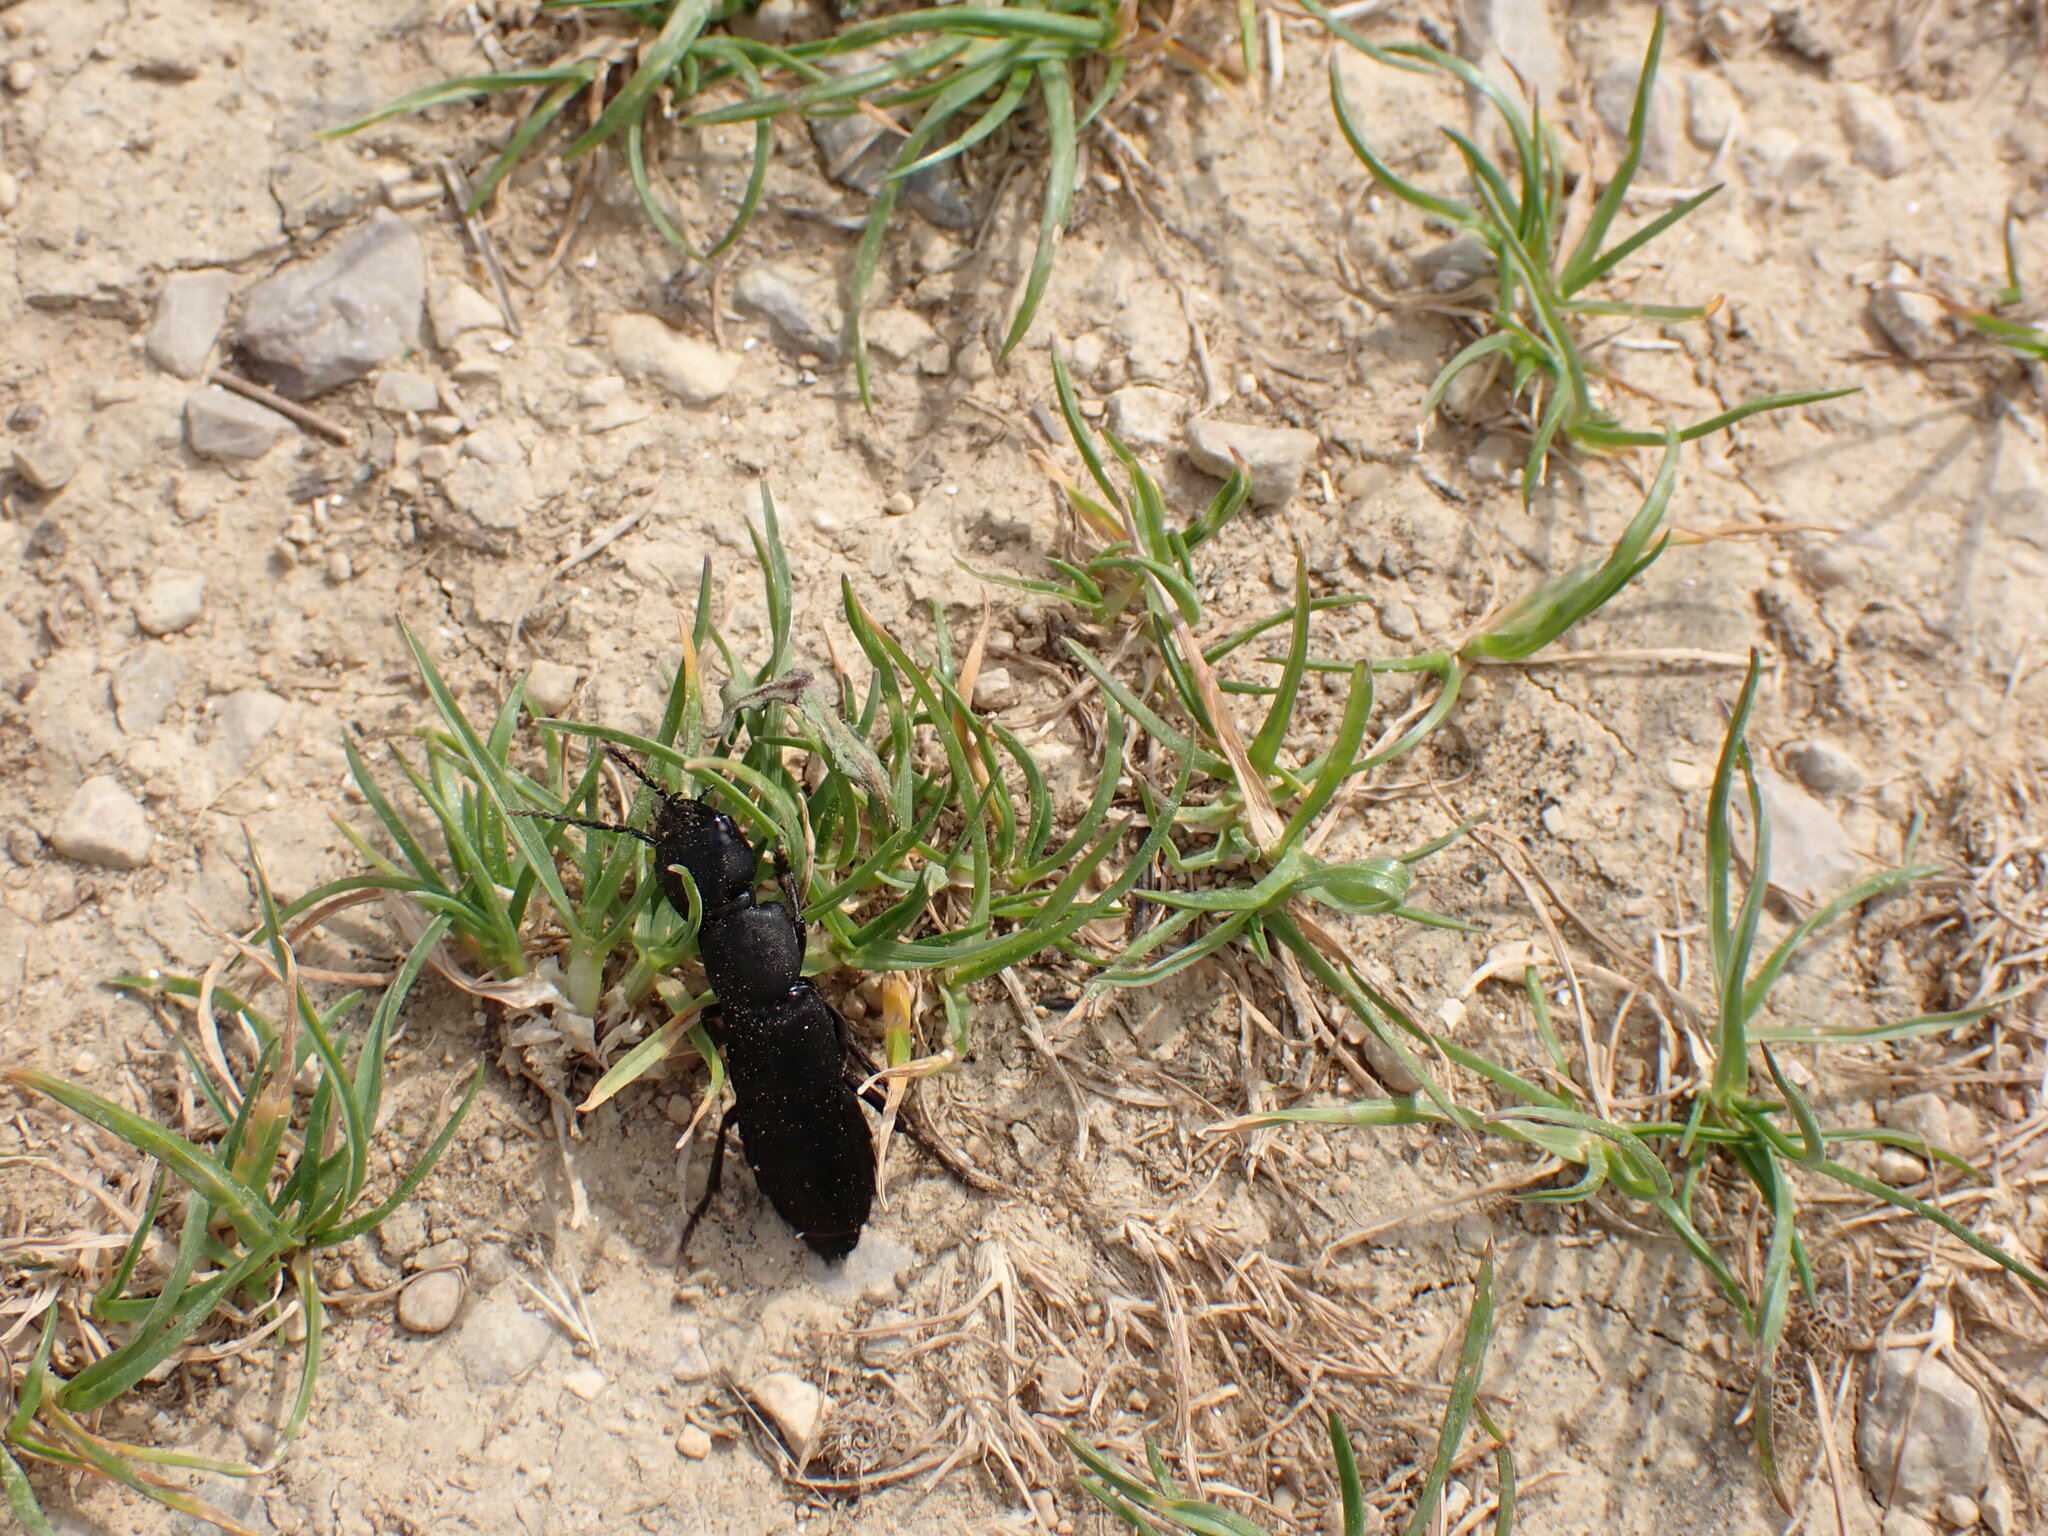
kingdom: Animalia
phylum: Arthropoda
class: Insecta
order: Coleoptera
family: Staphylinidae
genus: Ocypus
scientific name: Ocypus olens
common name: Devil's coach-horse
